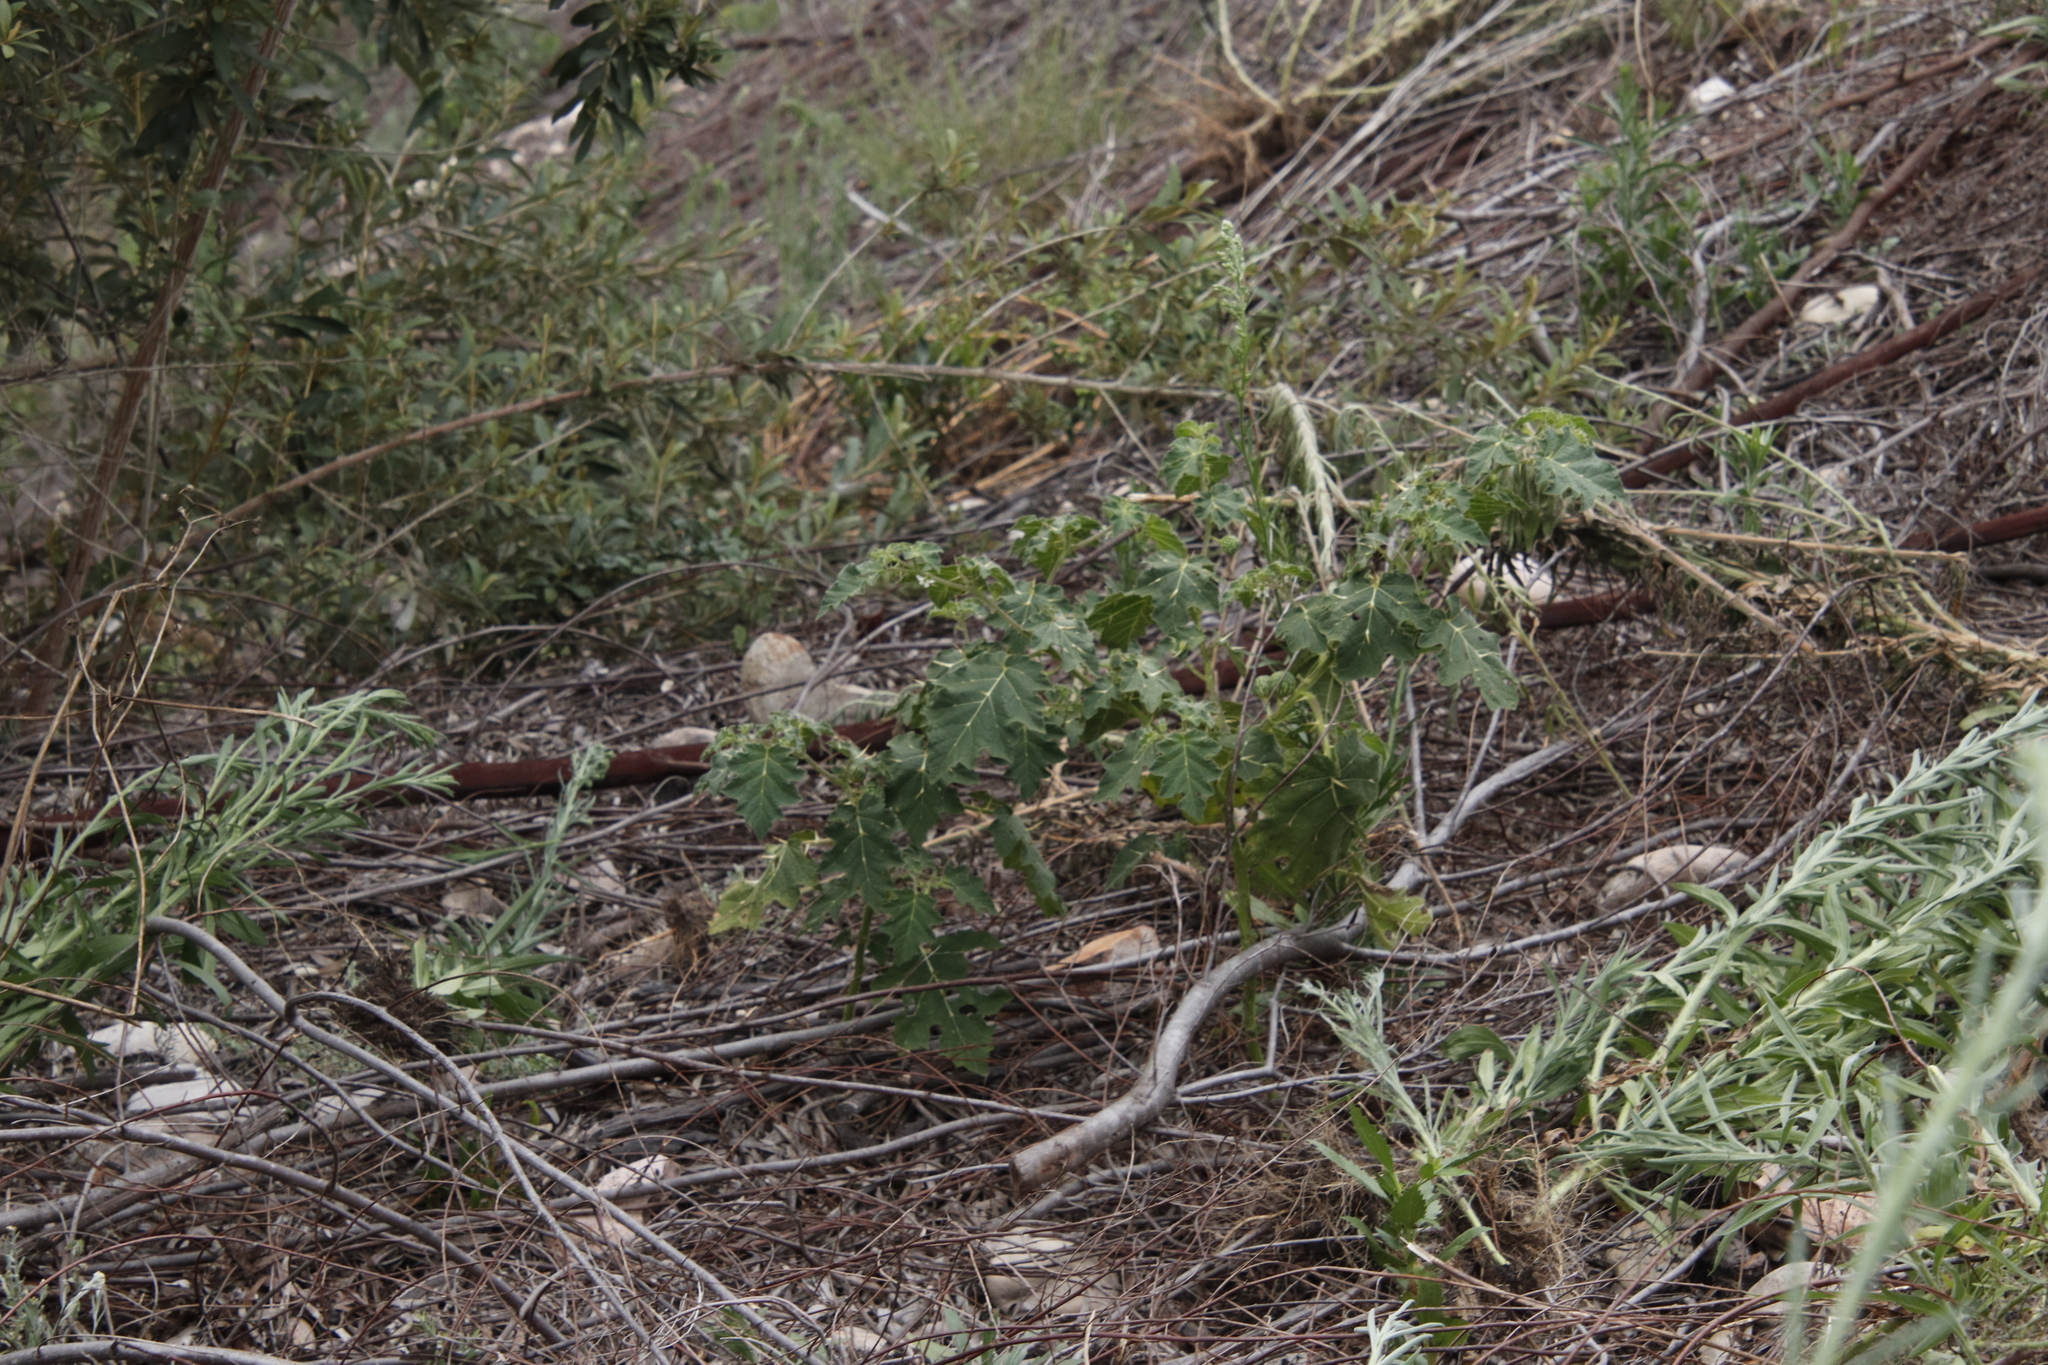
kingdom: Plantae
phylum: Tracheophyta
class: Magnoliopsida
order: Solanales
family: Solanaceae
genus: Solanum
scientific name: Solanum viarum
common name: Tropical soda apple
